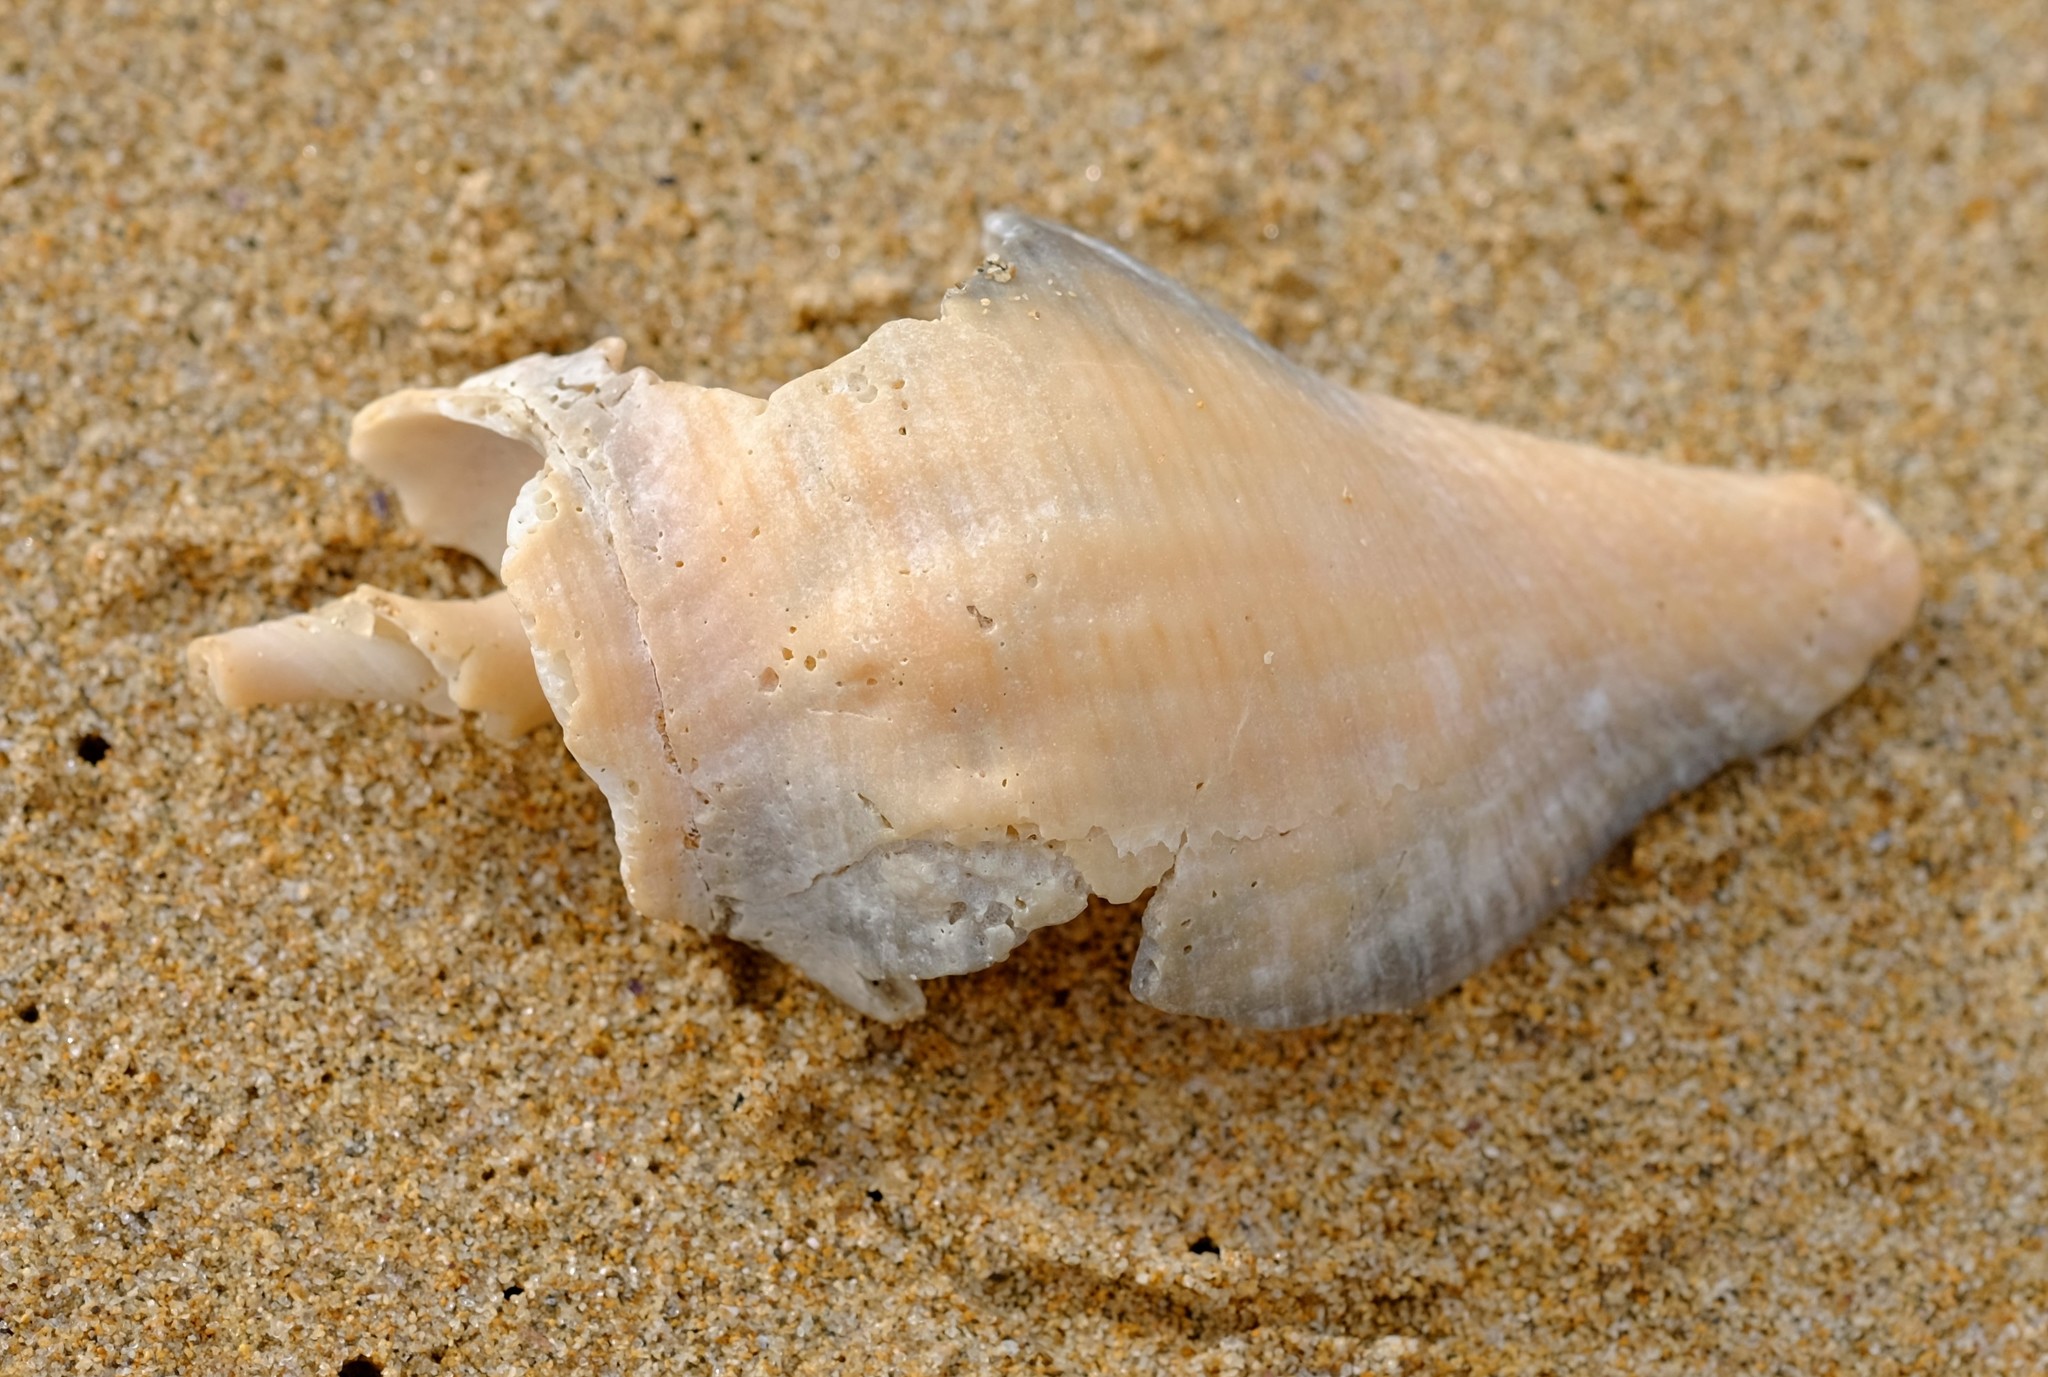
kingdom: Animalia
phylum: Mollusca
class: Gastropoda
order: Neogastropoda
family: Fasciolariidae
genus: Australaria
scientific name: Australaria australasia
